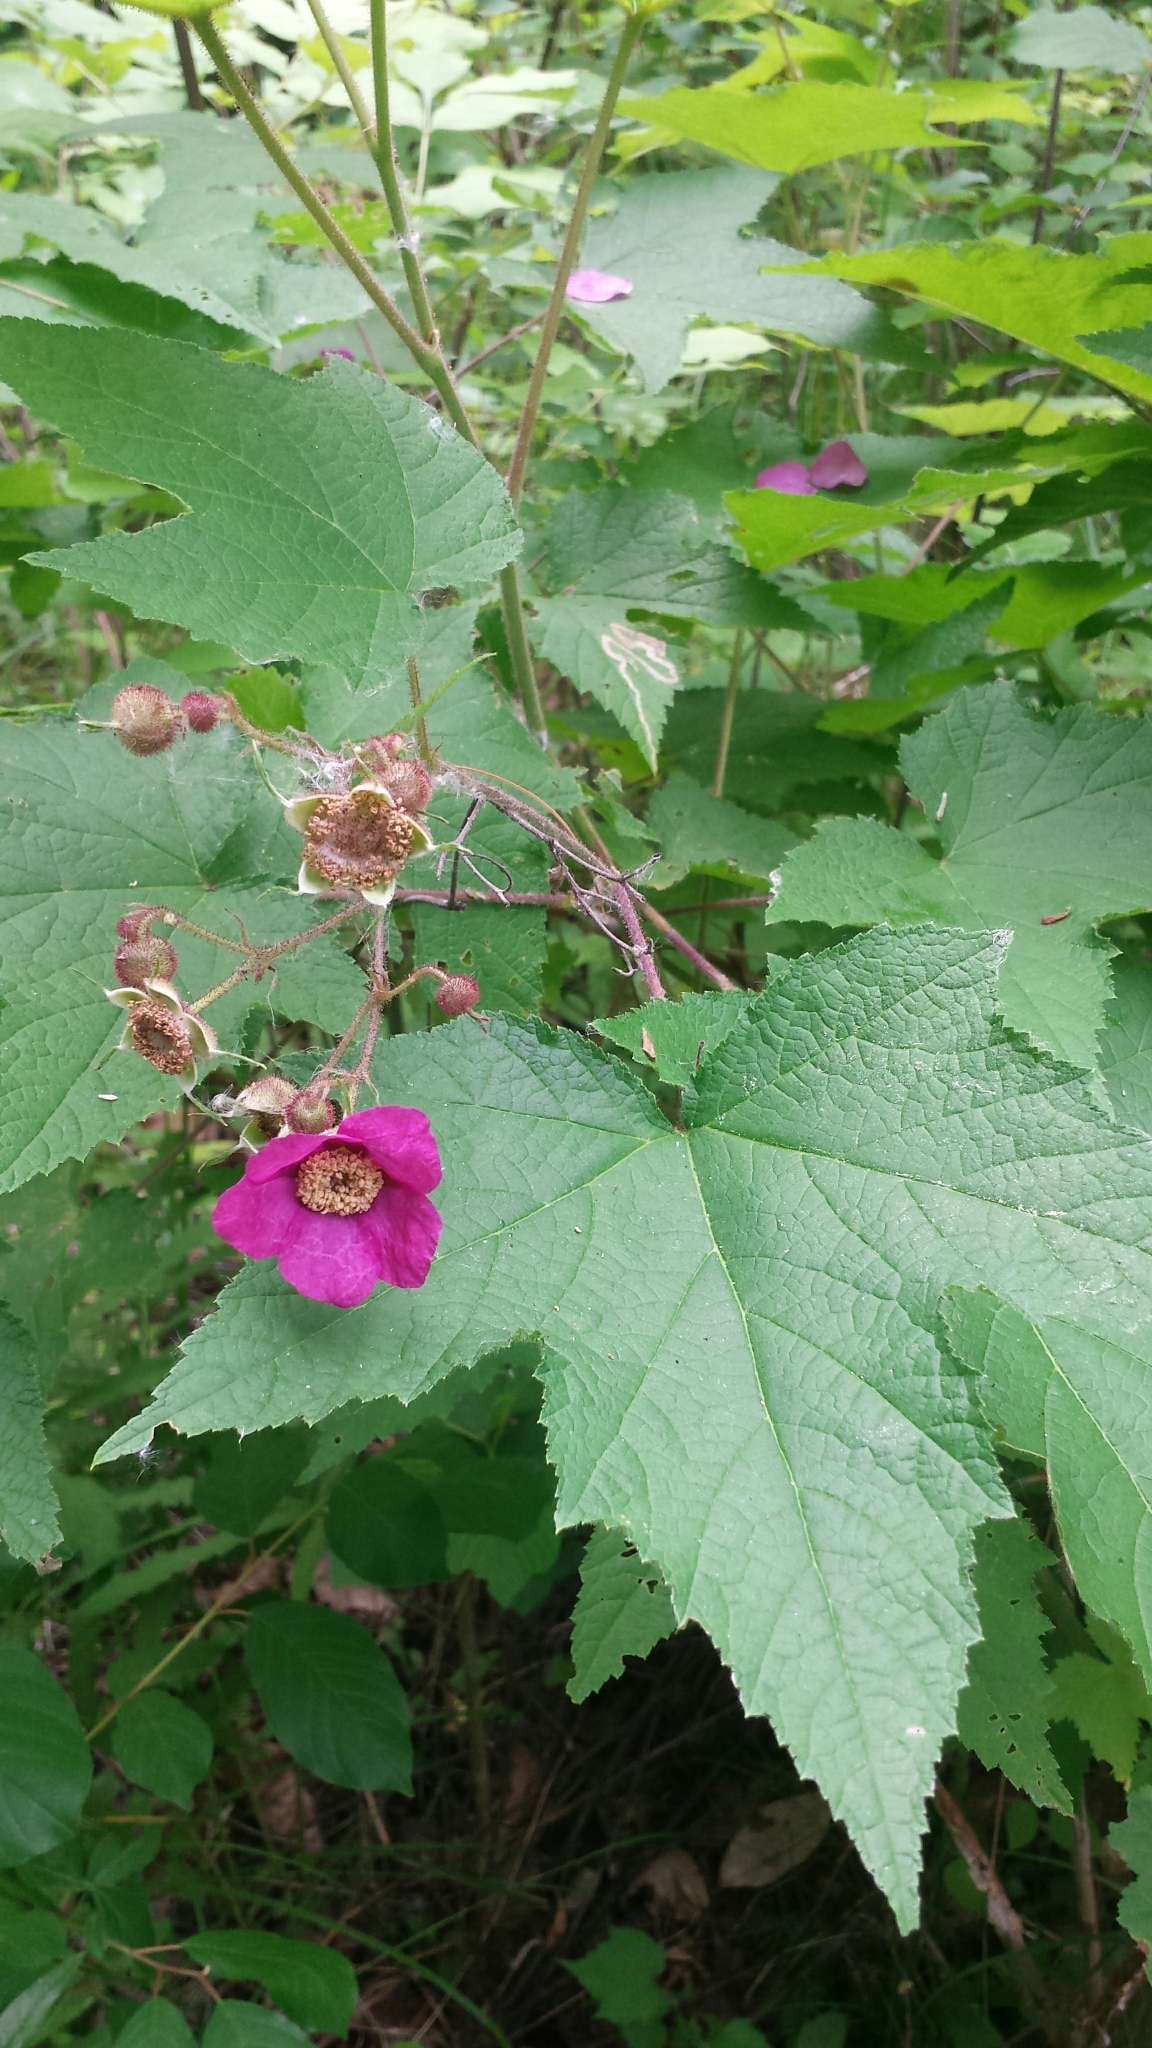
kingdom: Plantae
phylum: Tracheophyta
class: Magnoliopsida
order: Rosales
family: Rosaceae
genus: Rubus
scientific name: Rubus odoratus
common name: Purple-flowered raspberry
